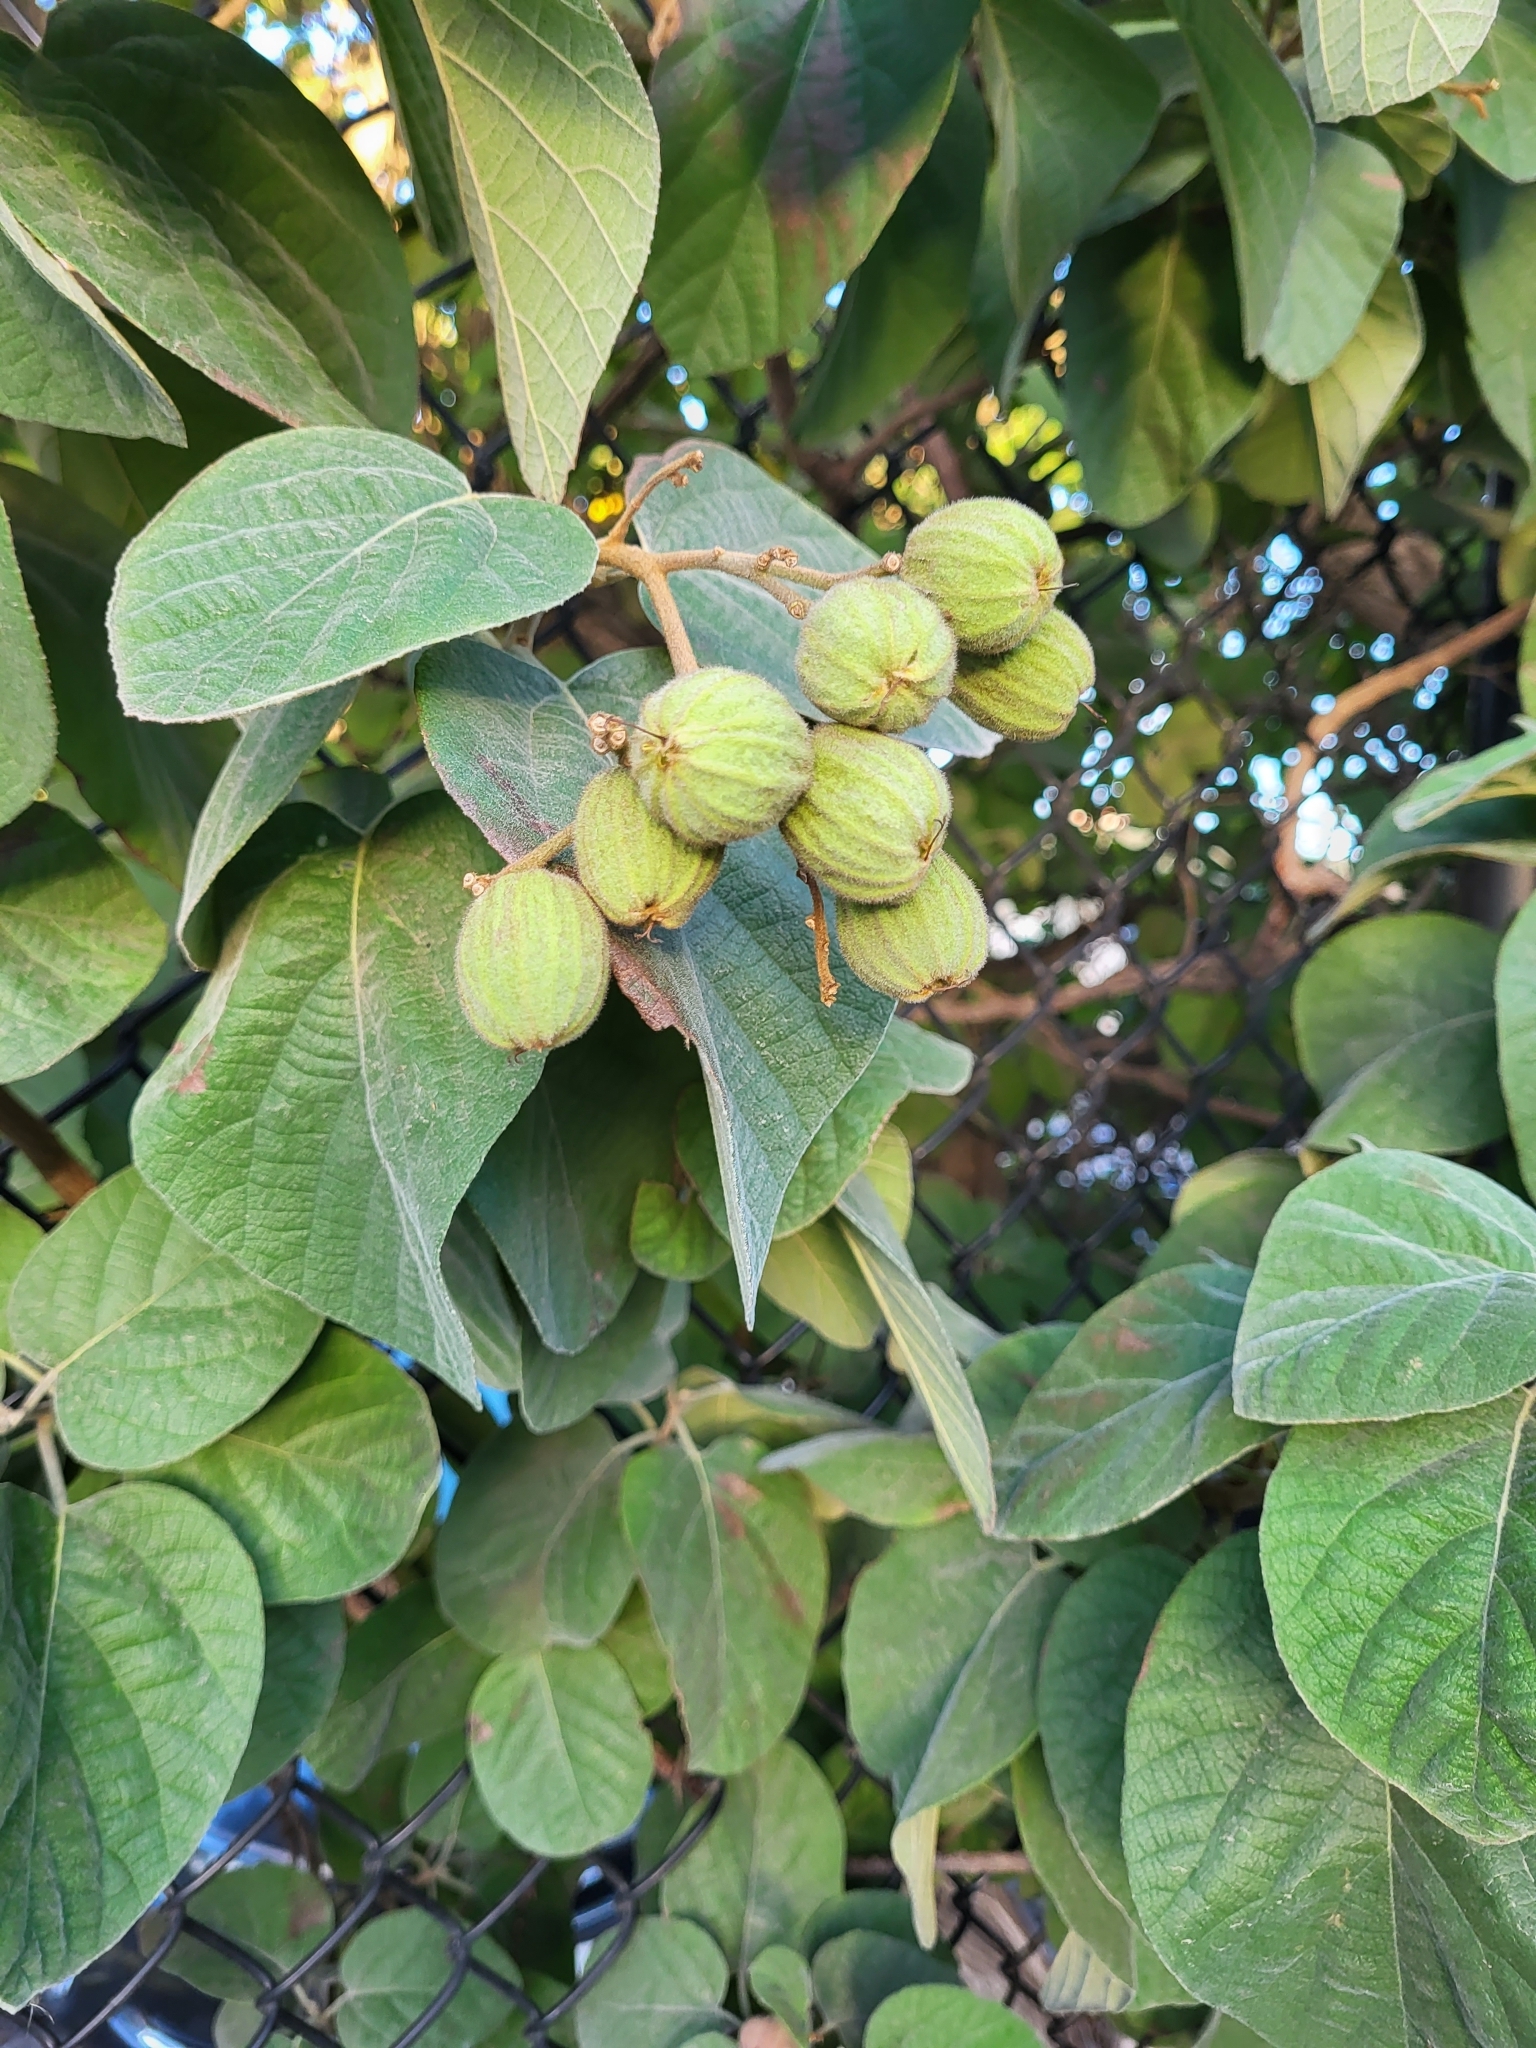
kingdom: Plantae
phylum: Tracheophyta
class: Magnoliopsida
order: Boraginales
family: Cordiaceae
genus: Cordia
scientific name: Cordia boissieri
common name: Mexican-olive
